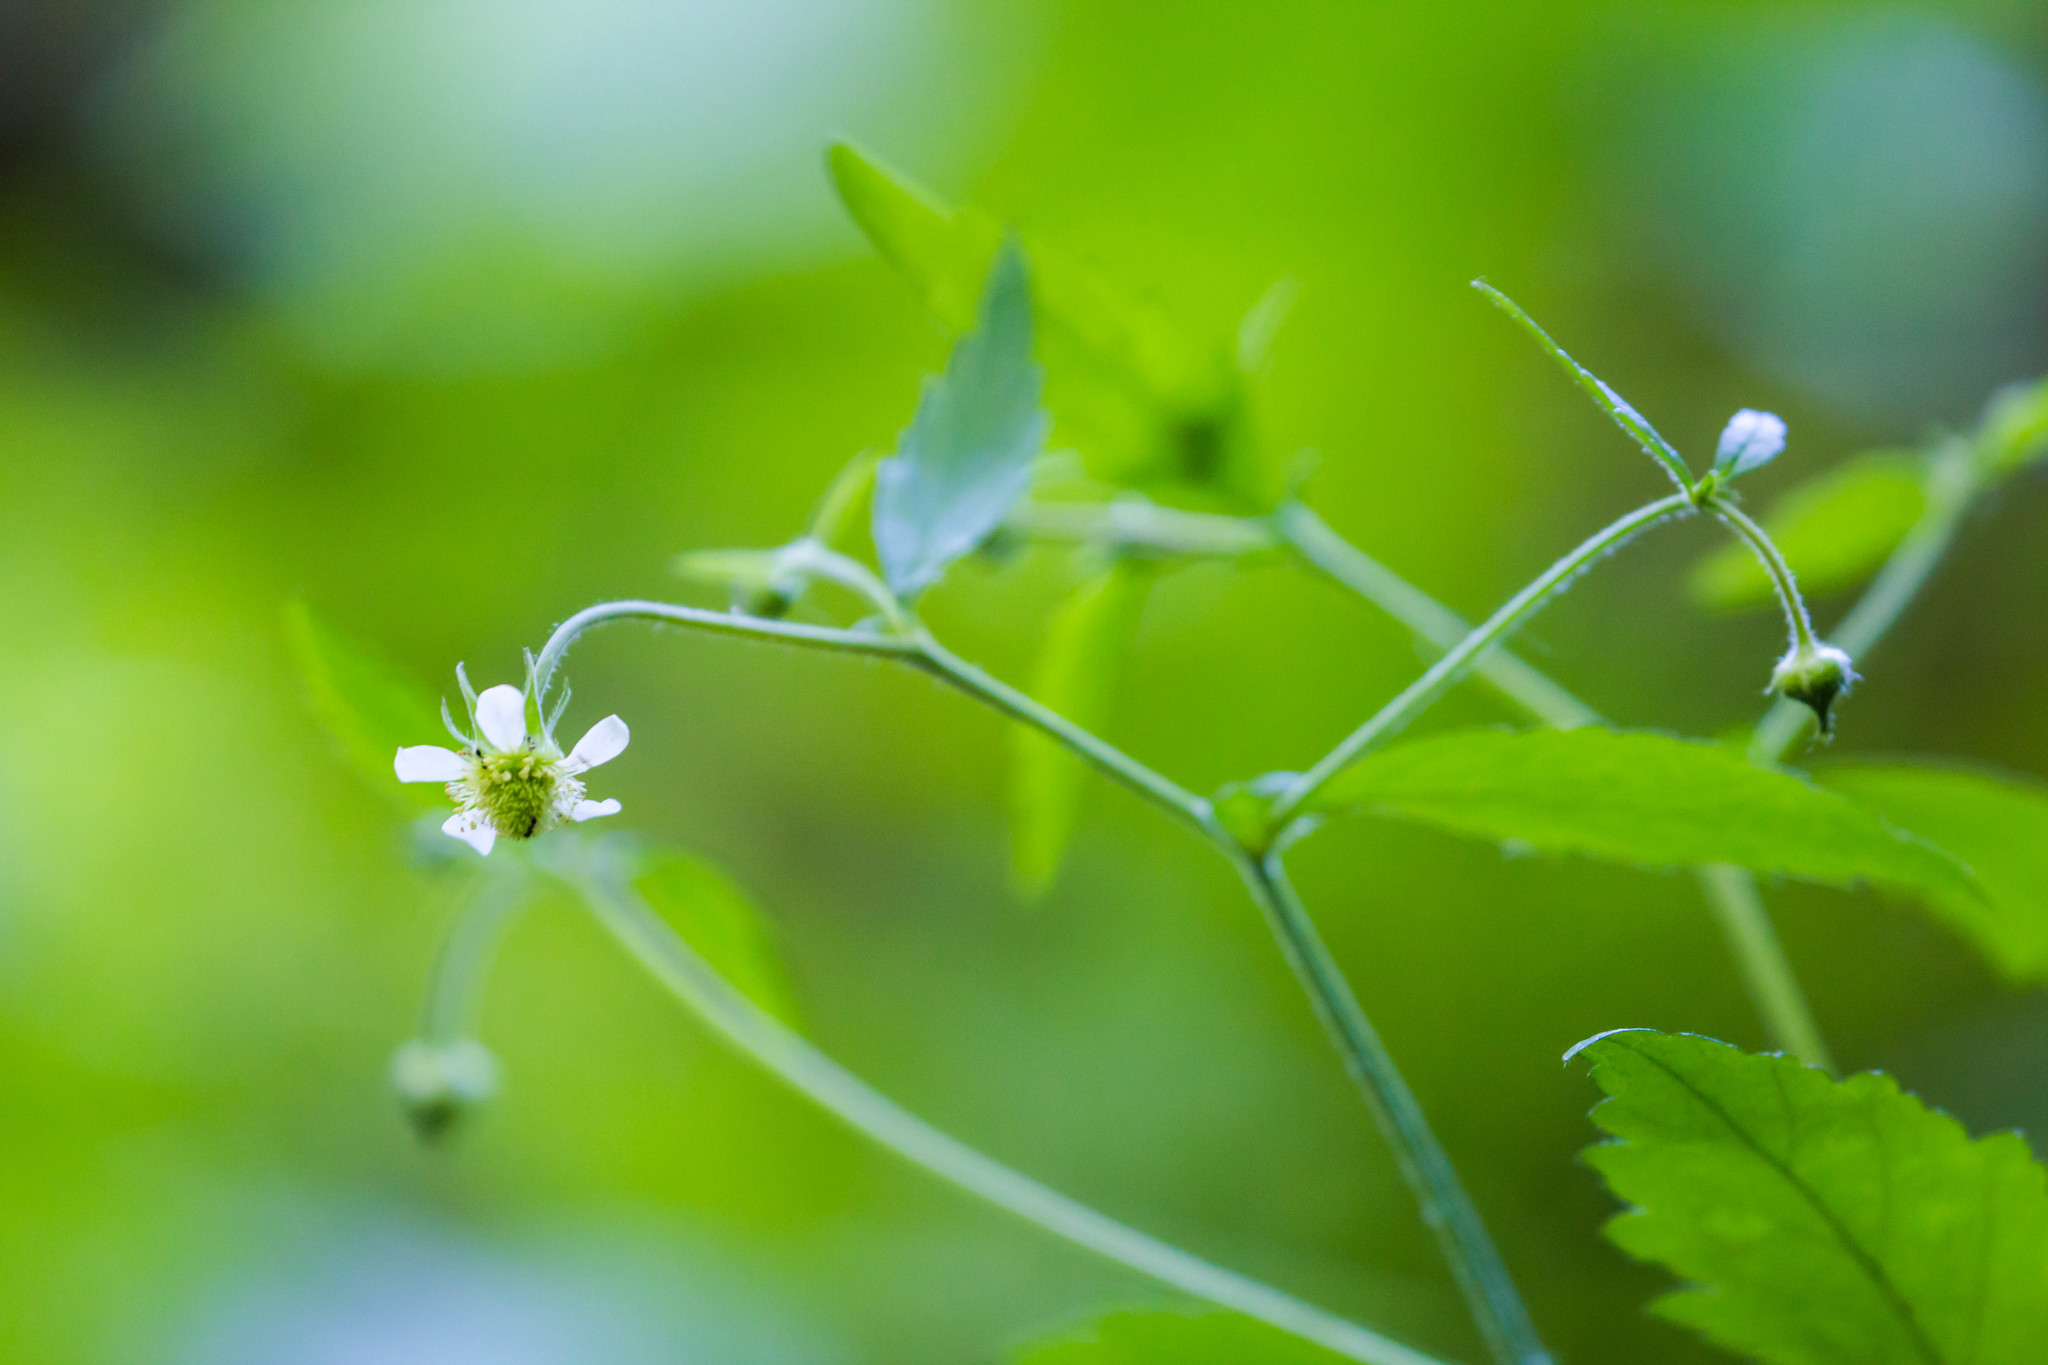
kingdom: Plantae
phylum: Tracheophyta
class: Magnoliopsida
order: Rosales
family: Rosaceae
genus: Geum
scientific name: Geum canadense
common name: White avens
